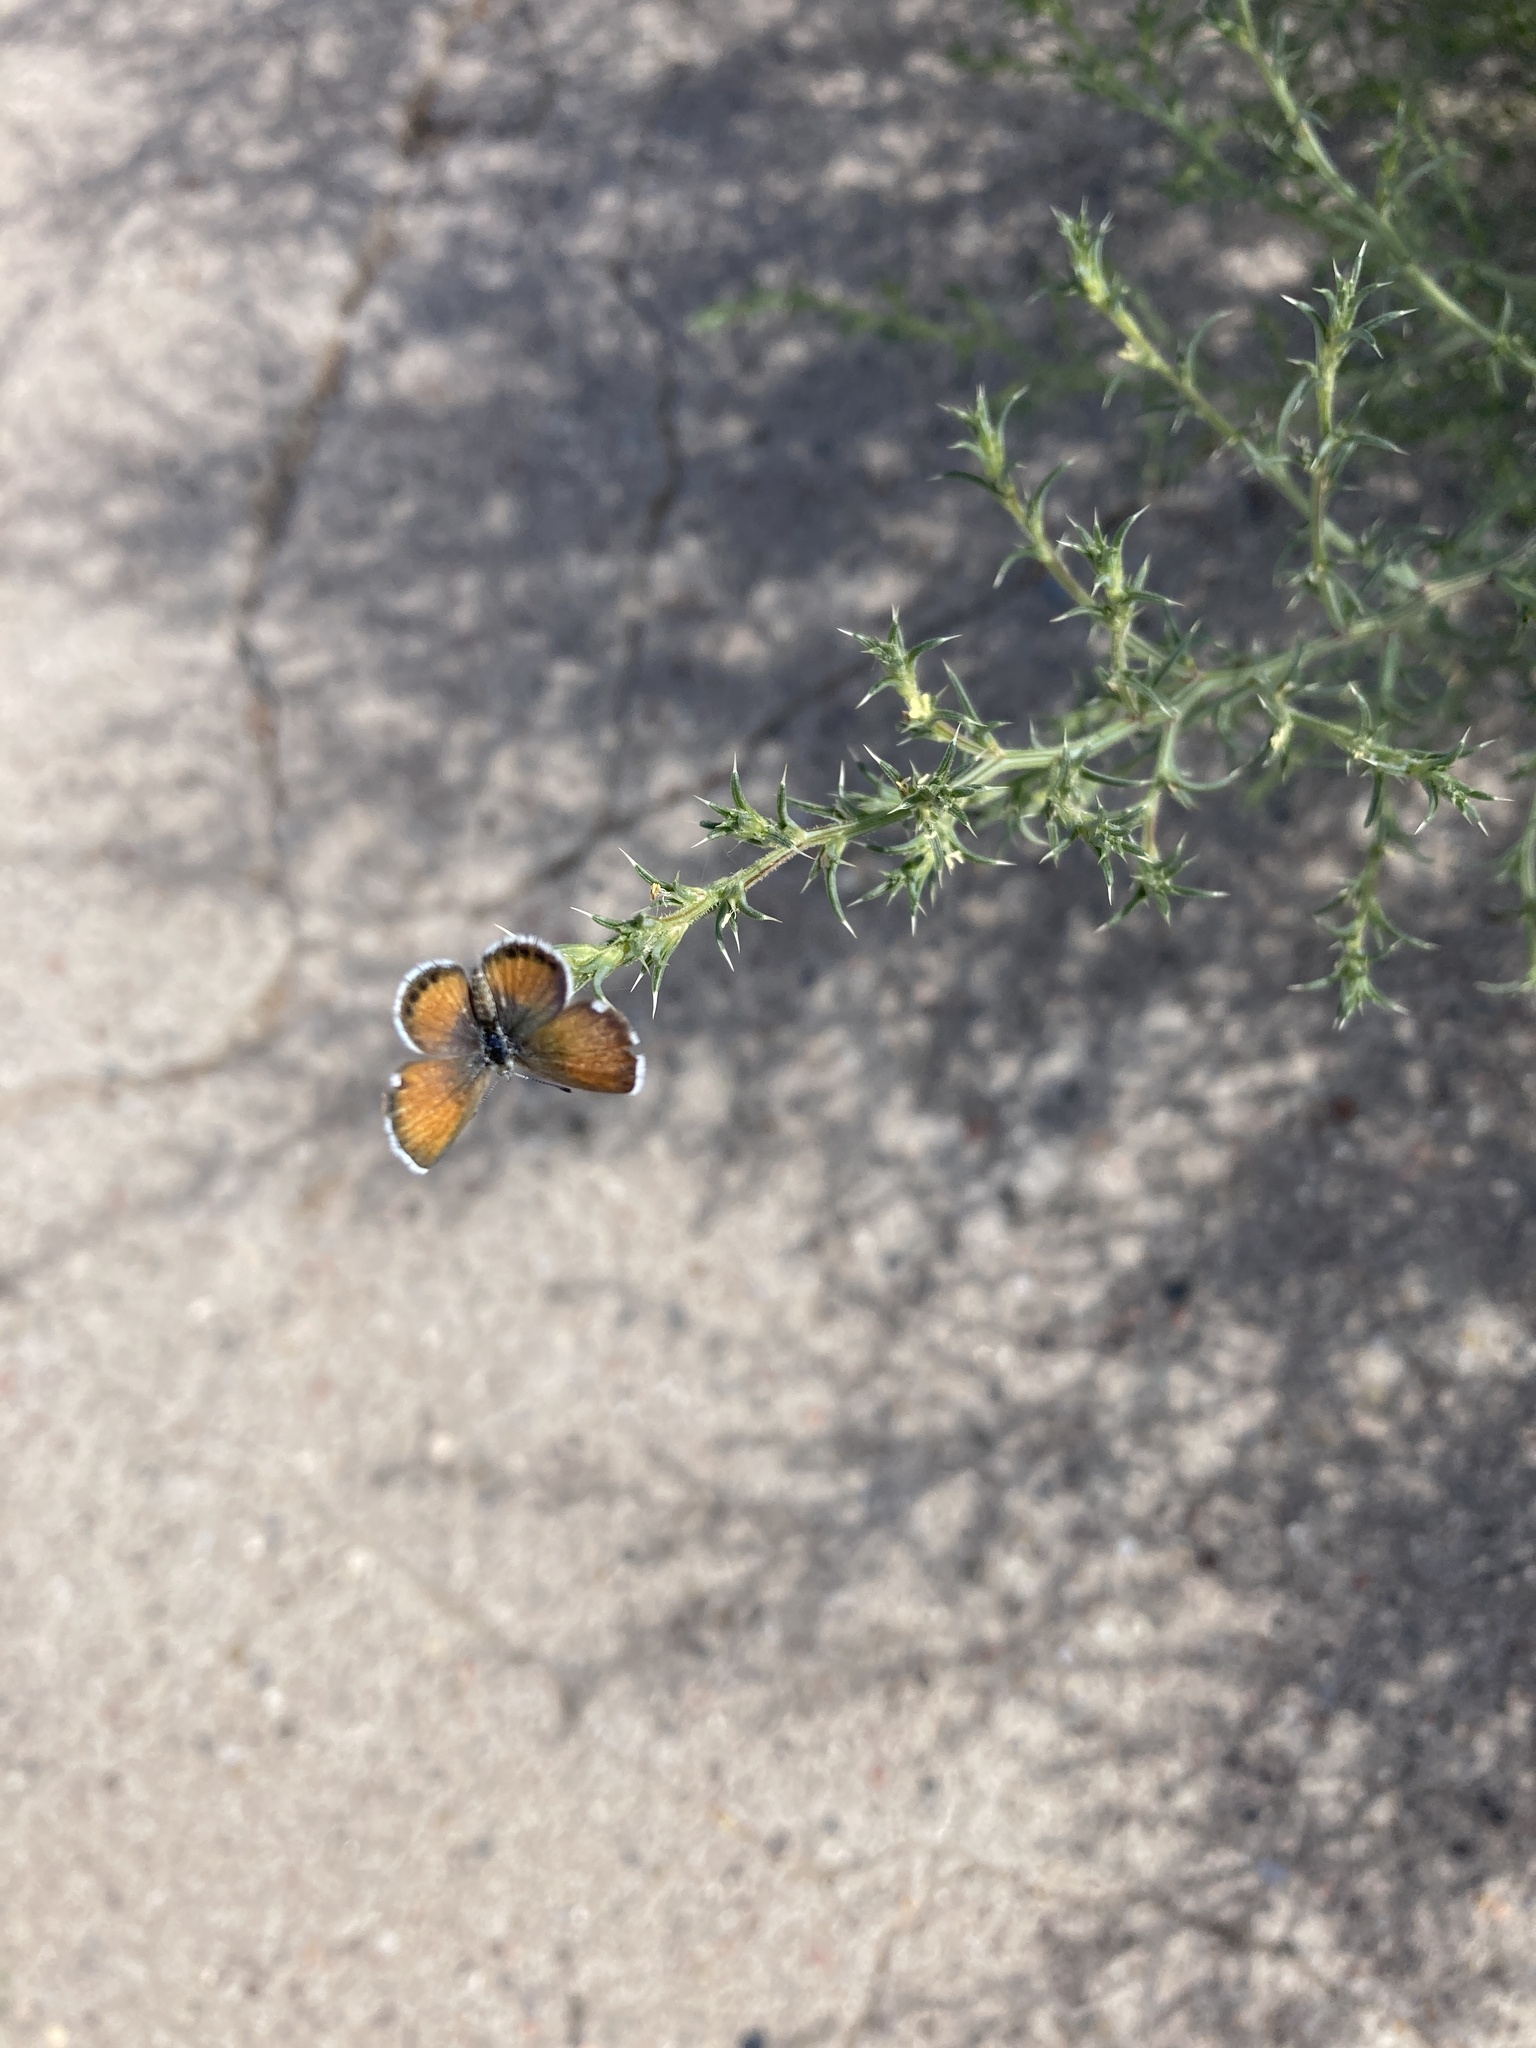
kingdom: Animalia
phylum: Arthropoda
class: Insecta
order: Lepidoptera
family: Lycaenidae
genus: Brephidium
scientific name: Brephidium exilis
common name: Pygmy blue
